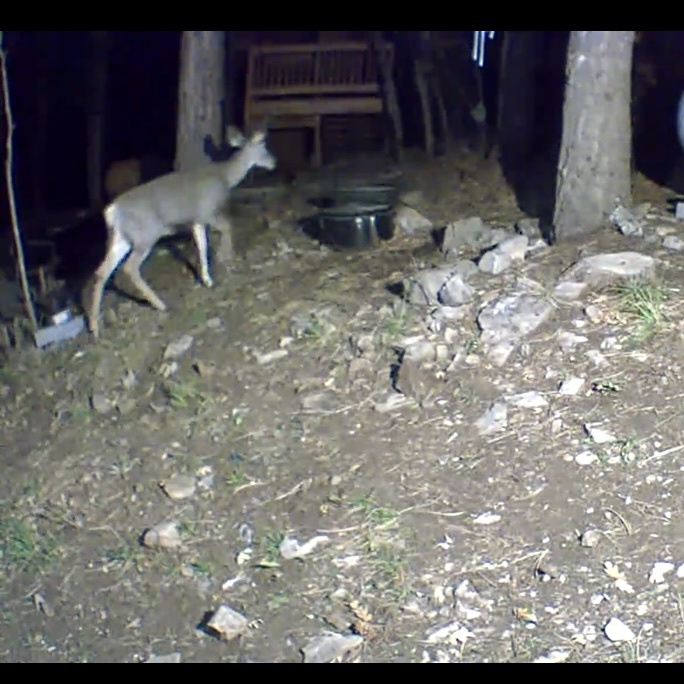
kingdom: Animalia
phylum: Chordata
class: Mammalia
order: Artiodactyla
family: Cervidae
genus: Odocoileus
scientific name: Odocoileus hemionus
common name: Mule deer
